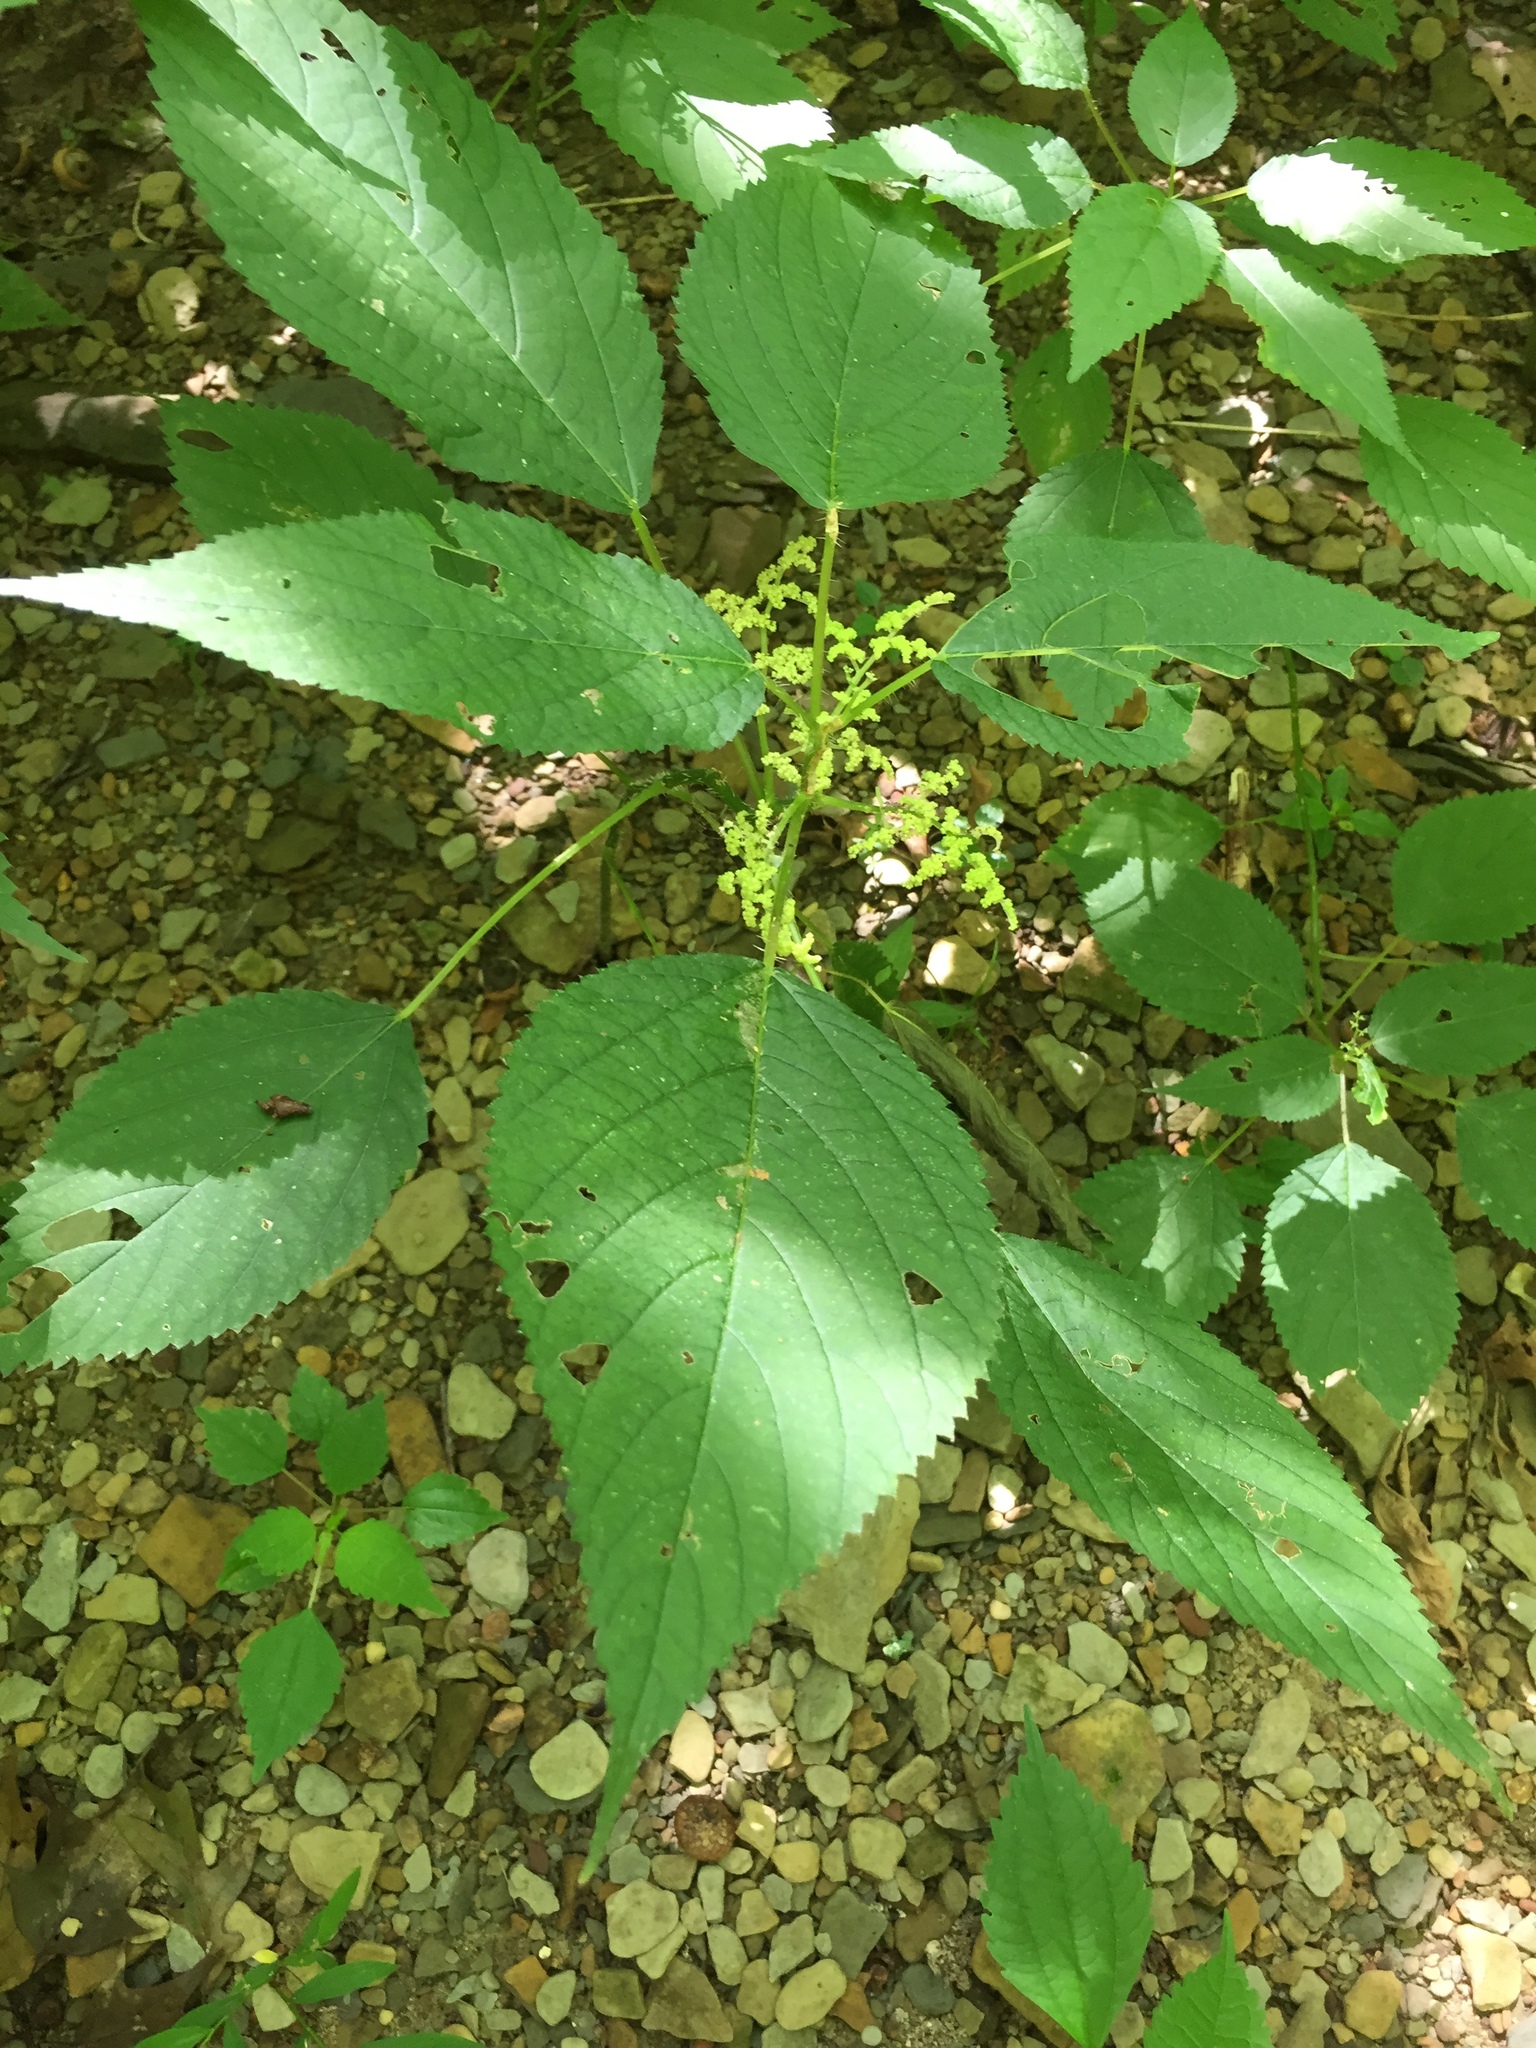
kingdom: Plantae
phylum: Tracheophyta
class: Magnoliopsida
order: Rosales
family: Urticaceae
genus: Laportea
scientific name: Laportea canadensis
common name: Canada nettle
